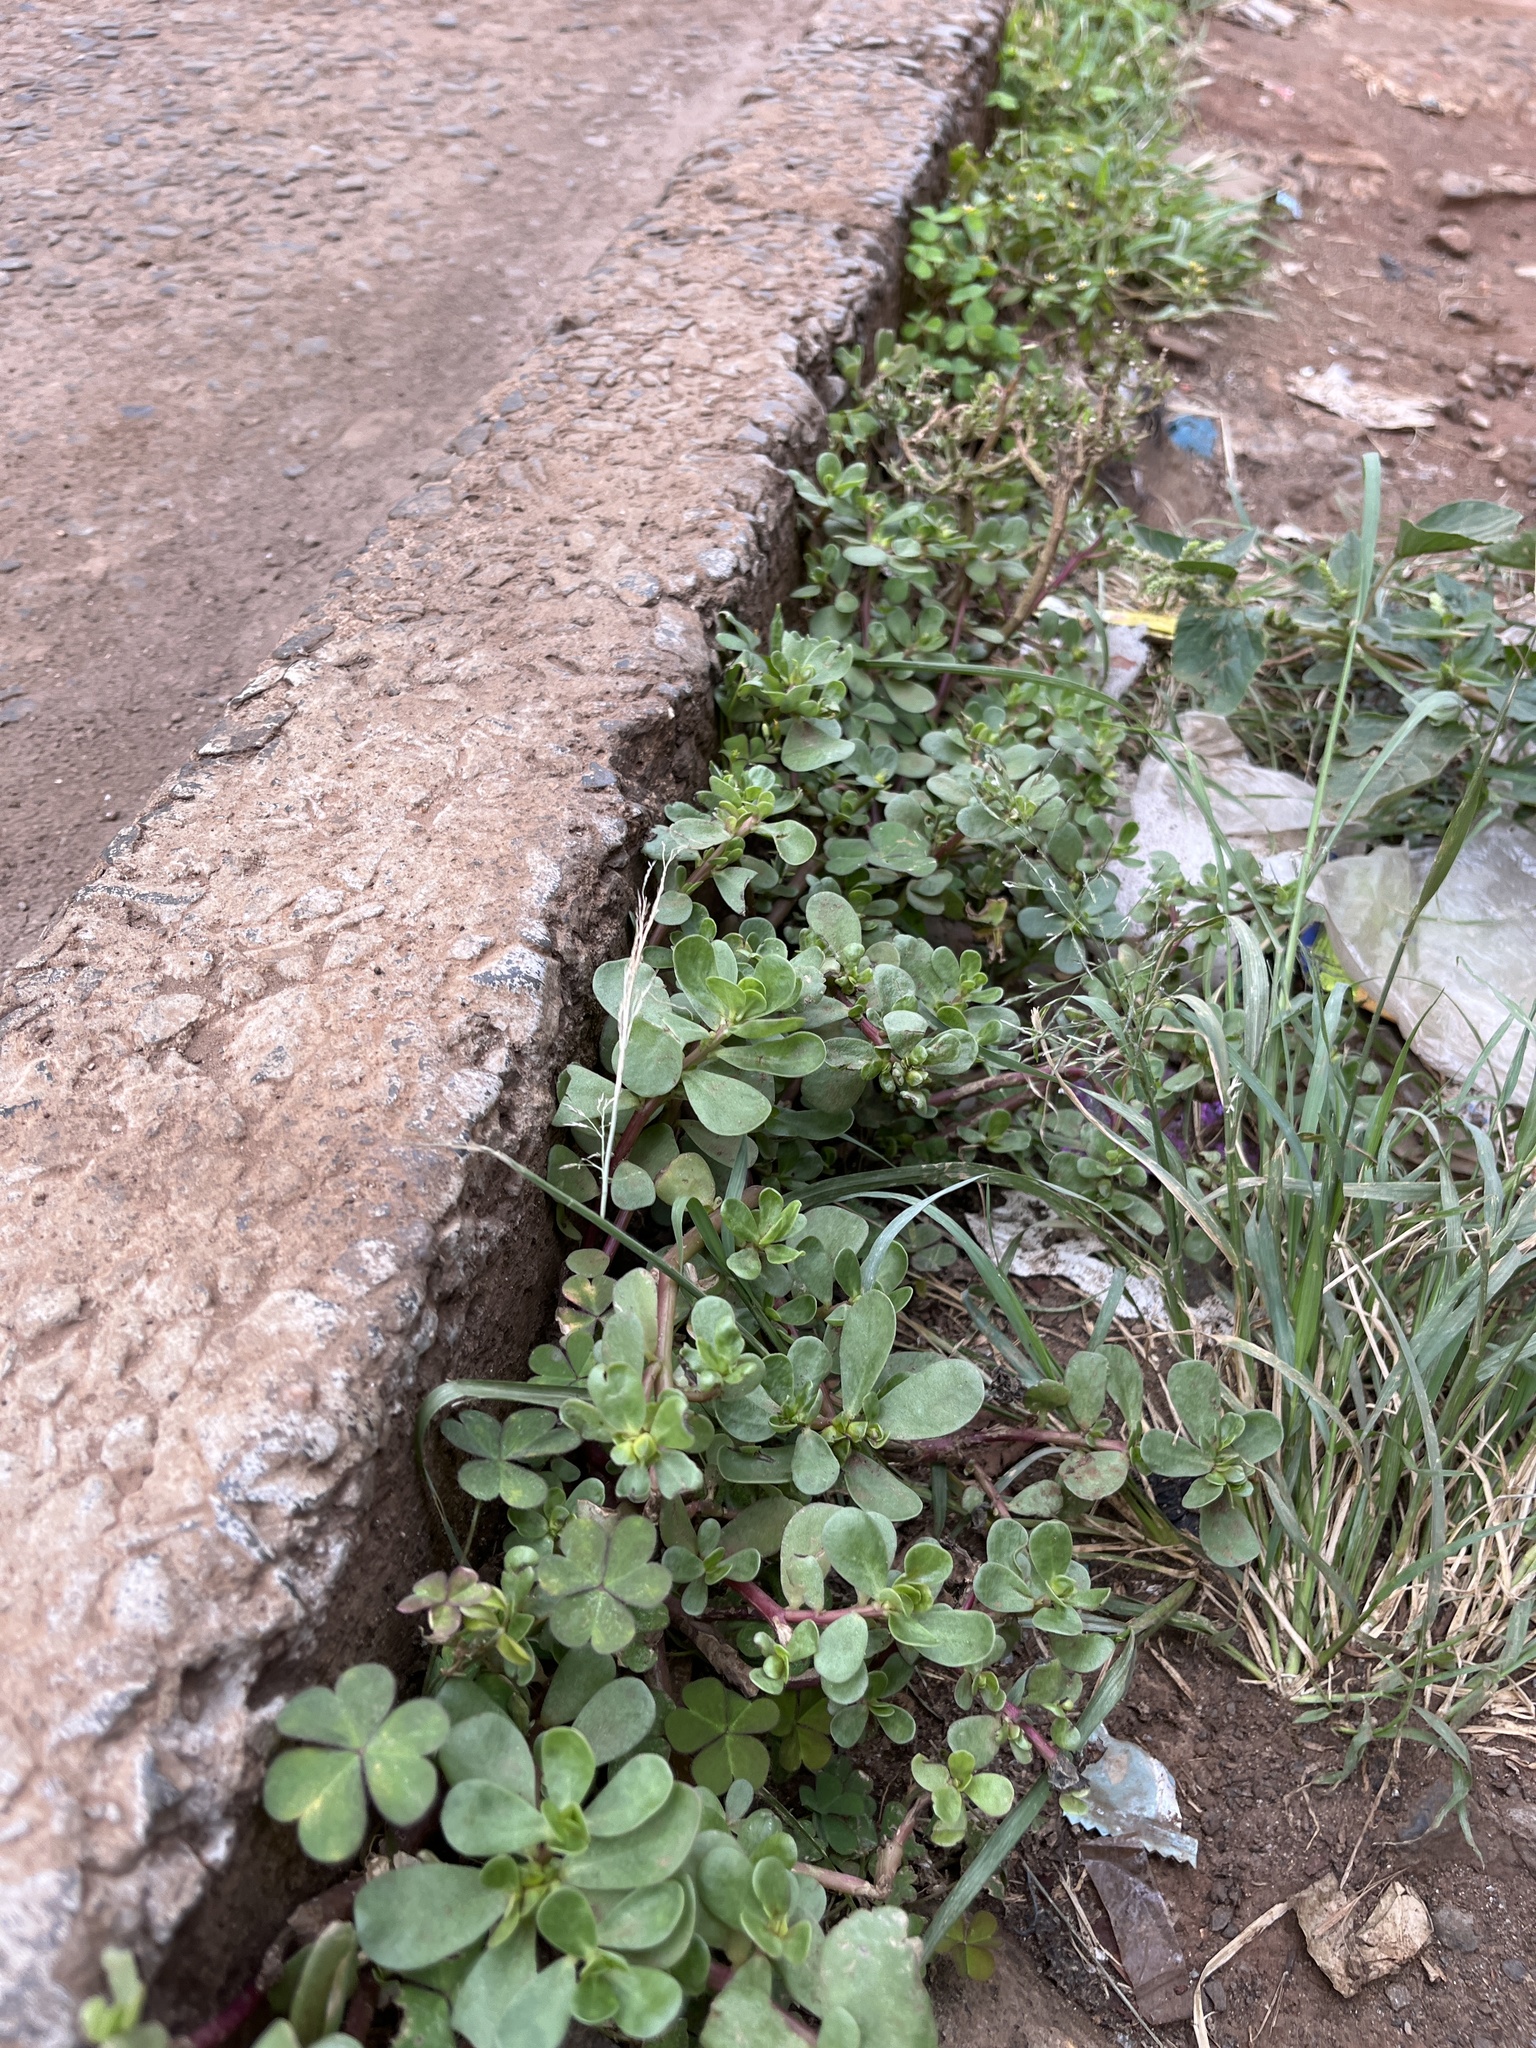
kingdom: Plantae
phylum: Tracheophyta
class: Magnoliopsida
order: Caryophyllales
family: Portulacaceae
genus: Portulaca
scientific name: Portulaca oleracea
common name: Common purslane
